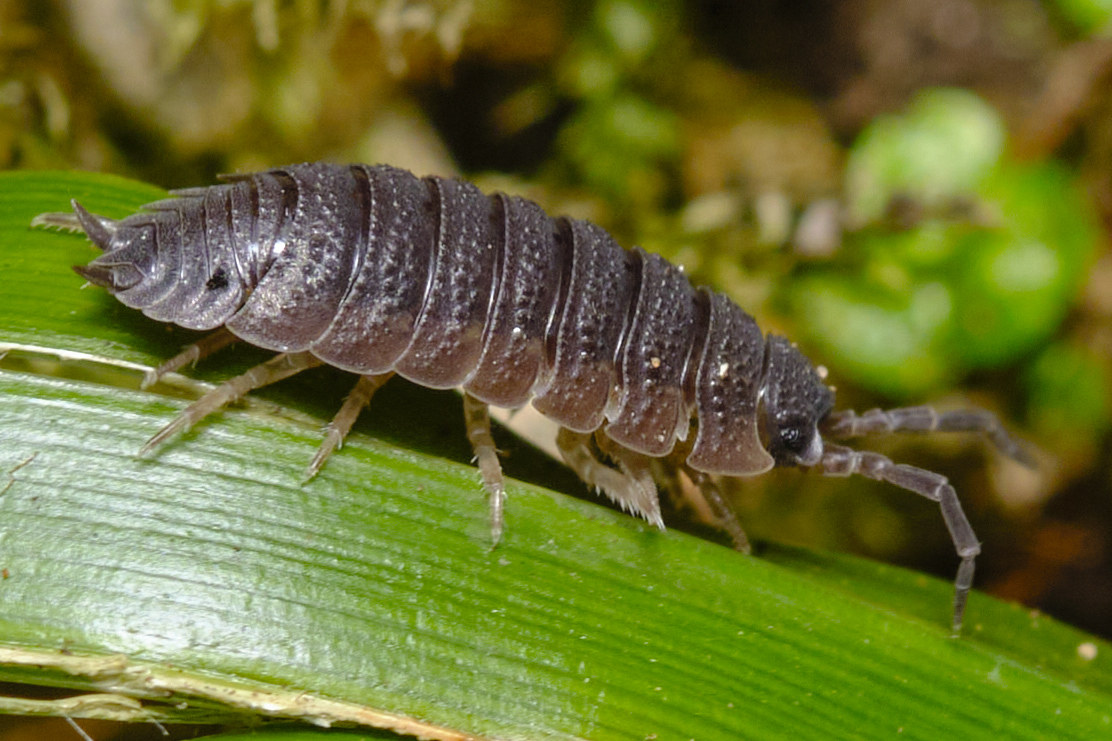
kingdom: Animalia
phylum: Arthropoda
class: Malacostraca
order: Isopoda
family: Porcellionidae
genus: Porcellio
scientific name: Porcellio scaber
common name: Common rough woodlouse
